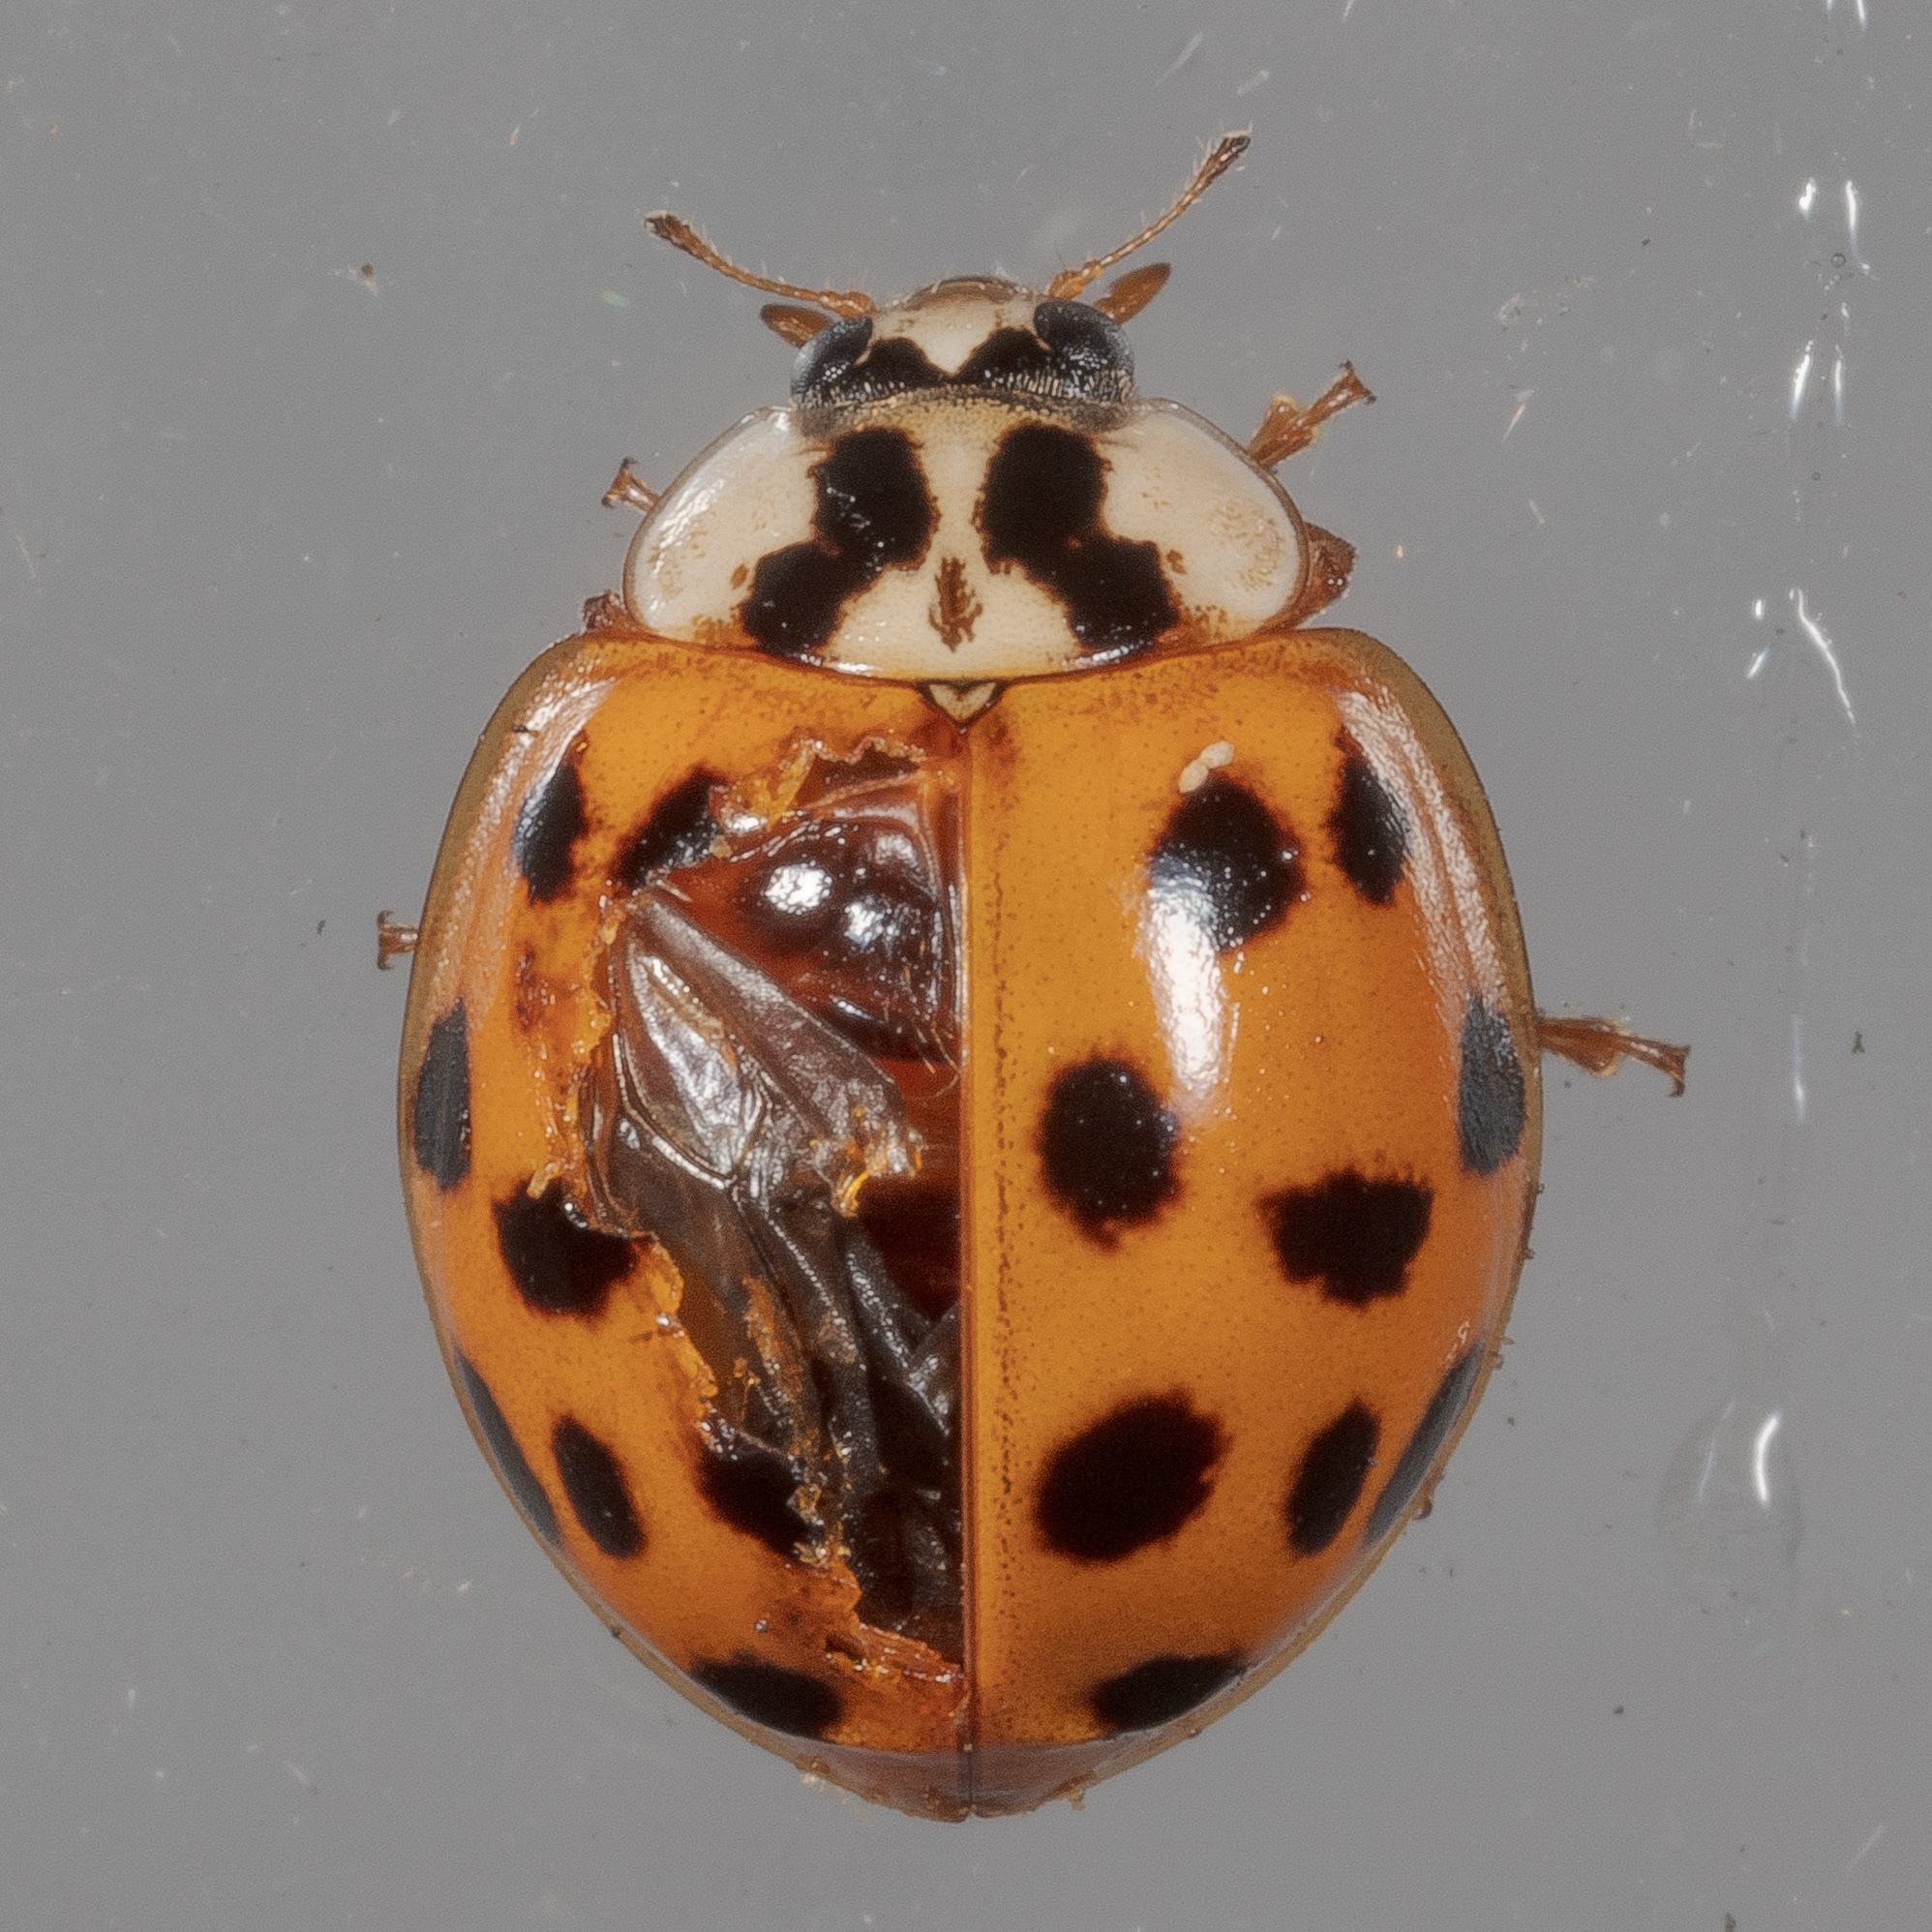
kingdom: Animalia
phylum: Arthropoda
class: Insecta
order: Coleoptera
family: Coccinellidae
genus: Harmonia
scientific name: Harmonia axyridis
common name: Harlequin ladybird
